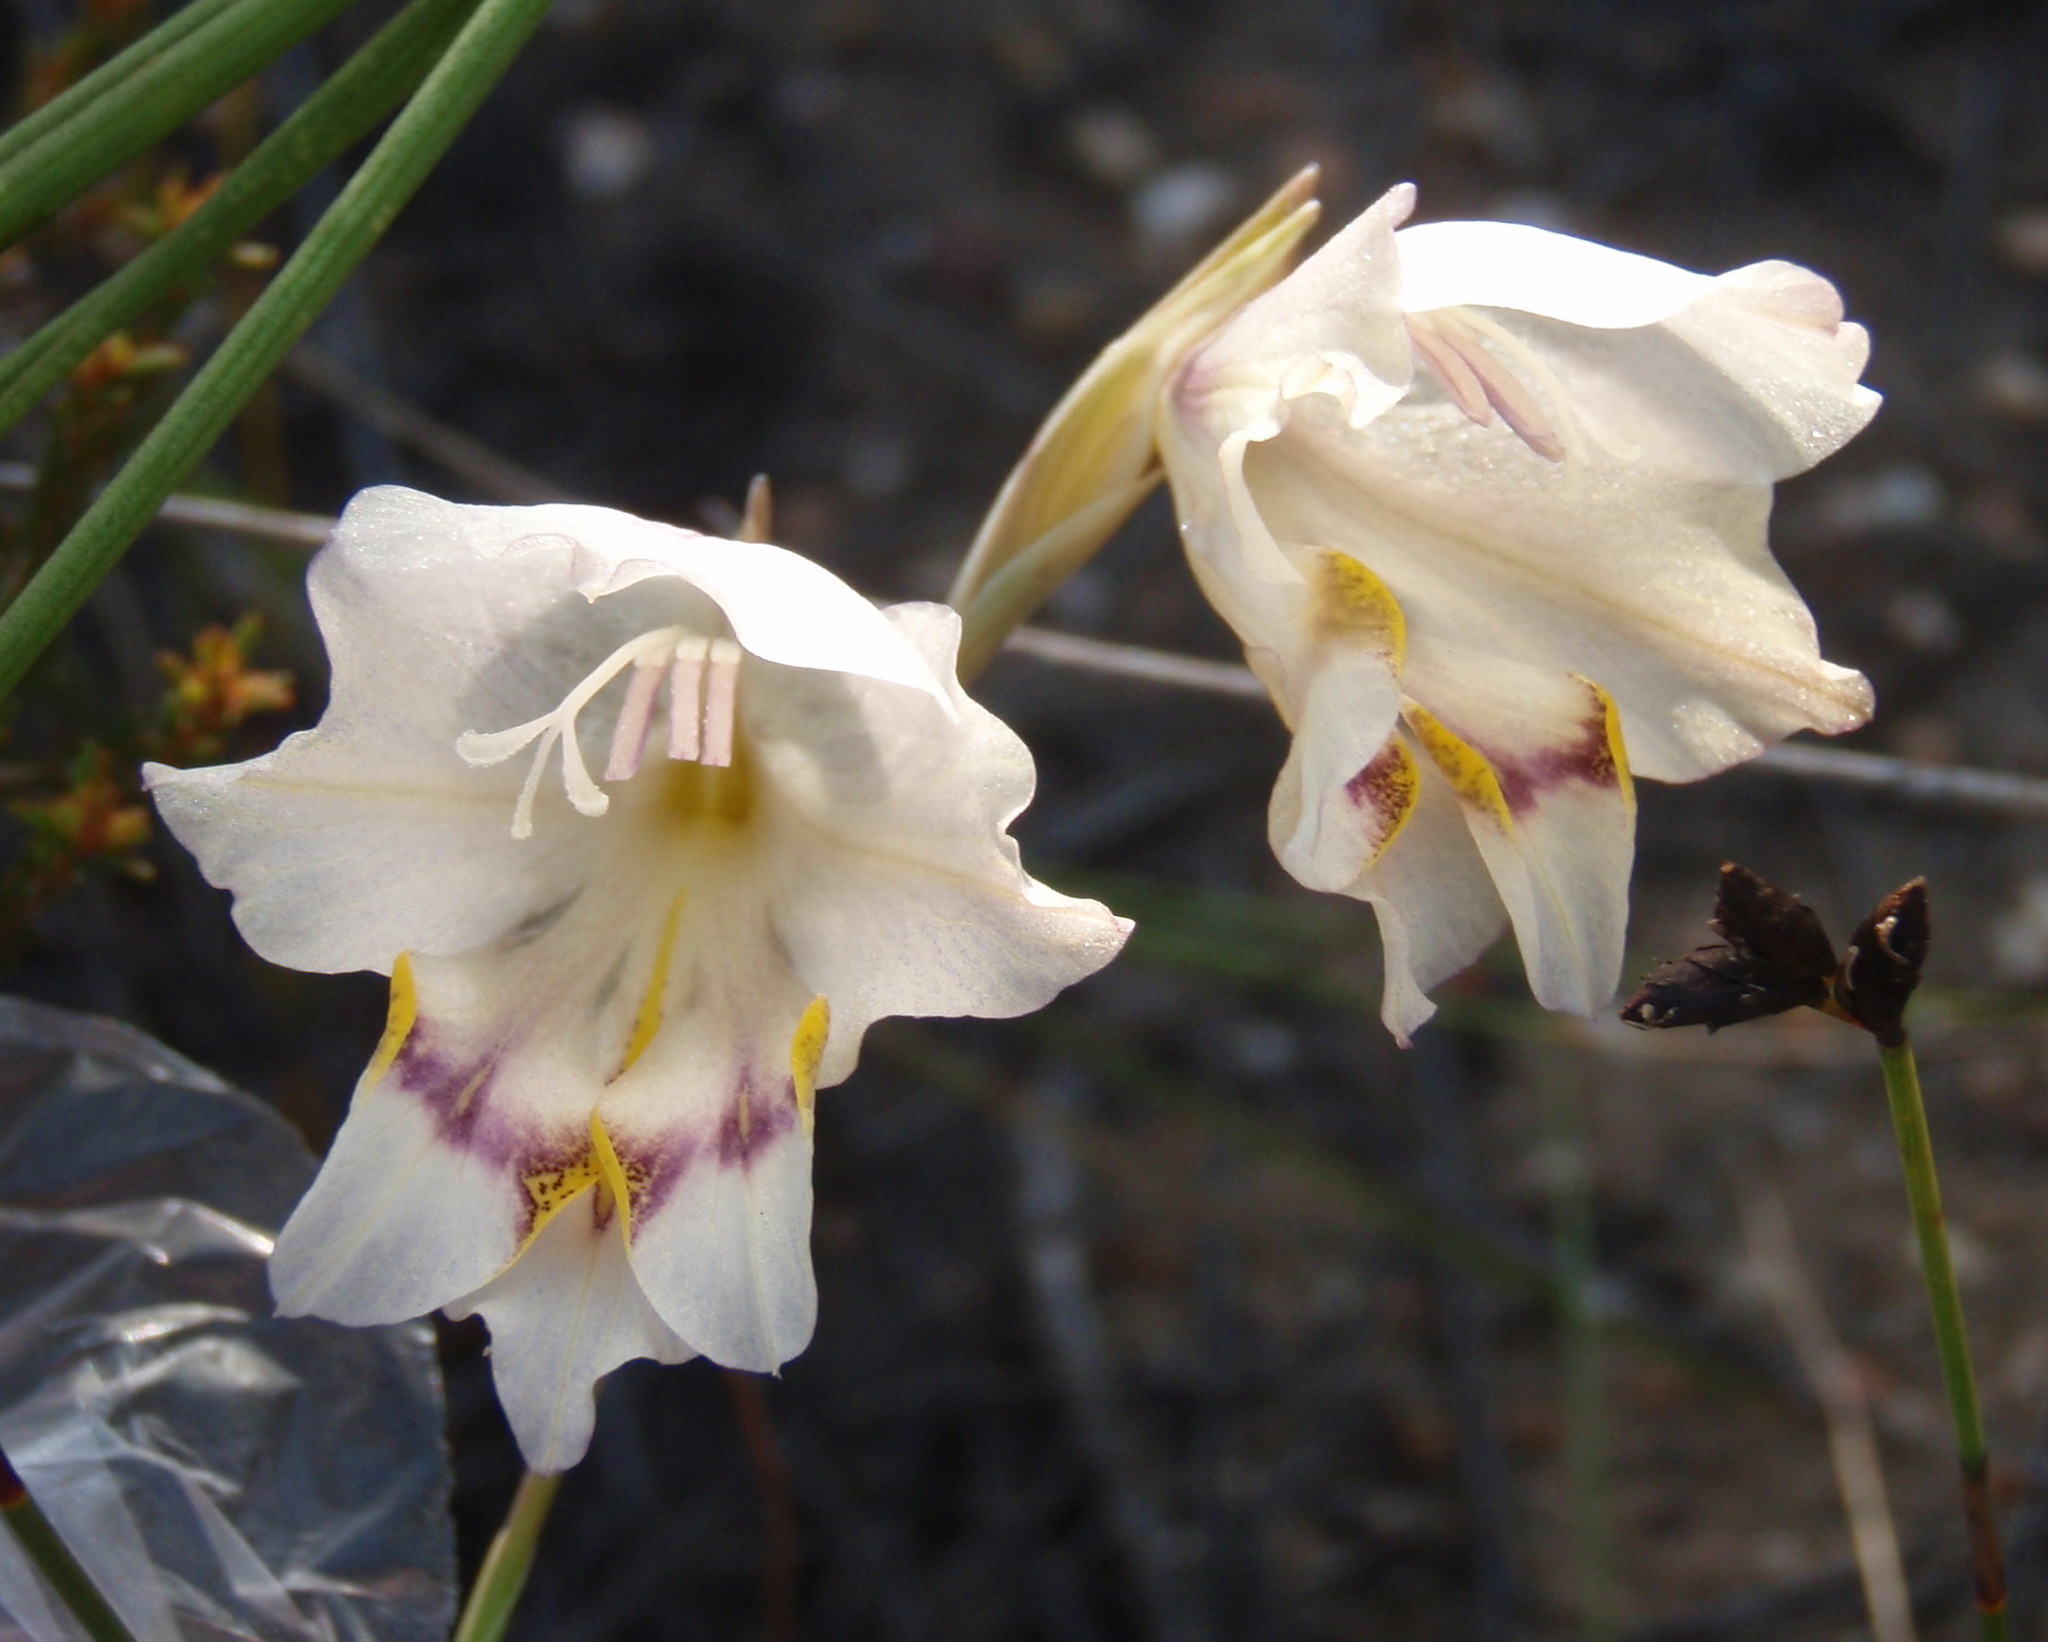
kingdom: Plantae
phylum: Tracheophyta
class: Liliopsida
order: Asparagales
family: Iridaceae
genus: Gladiolus
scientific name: Gladiolus patersoniae
